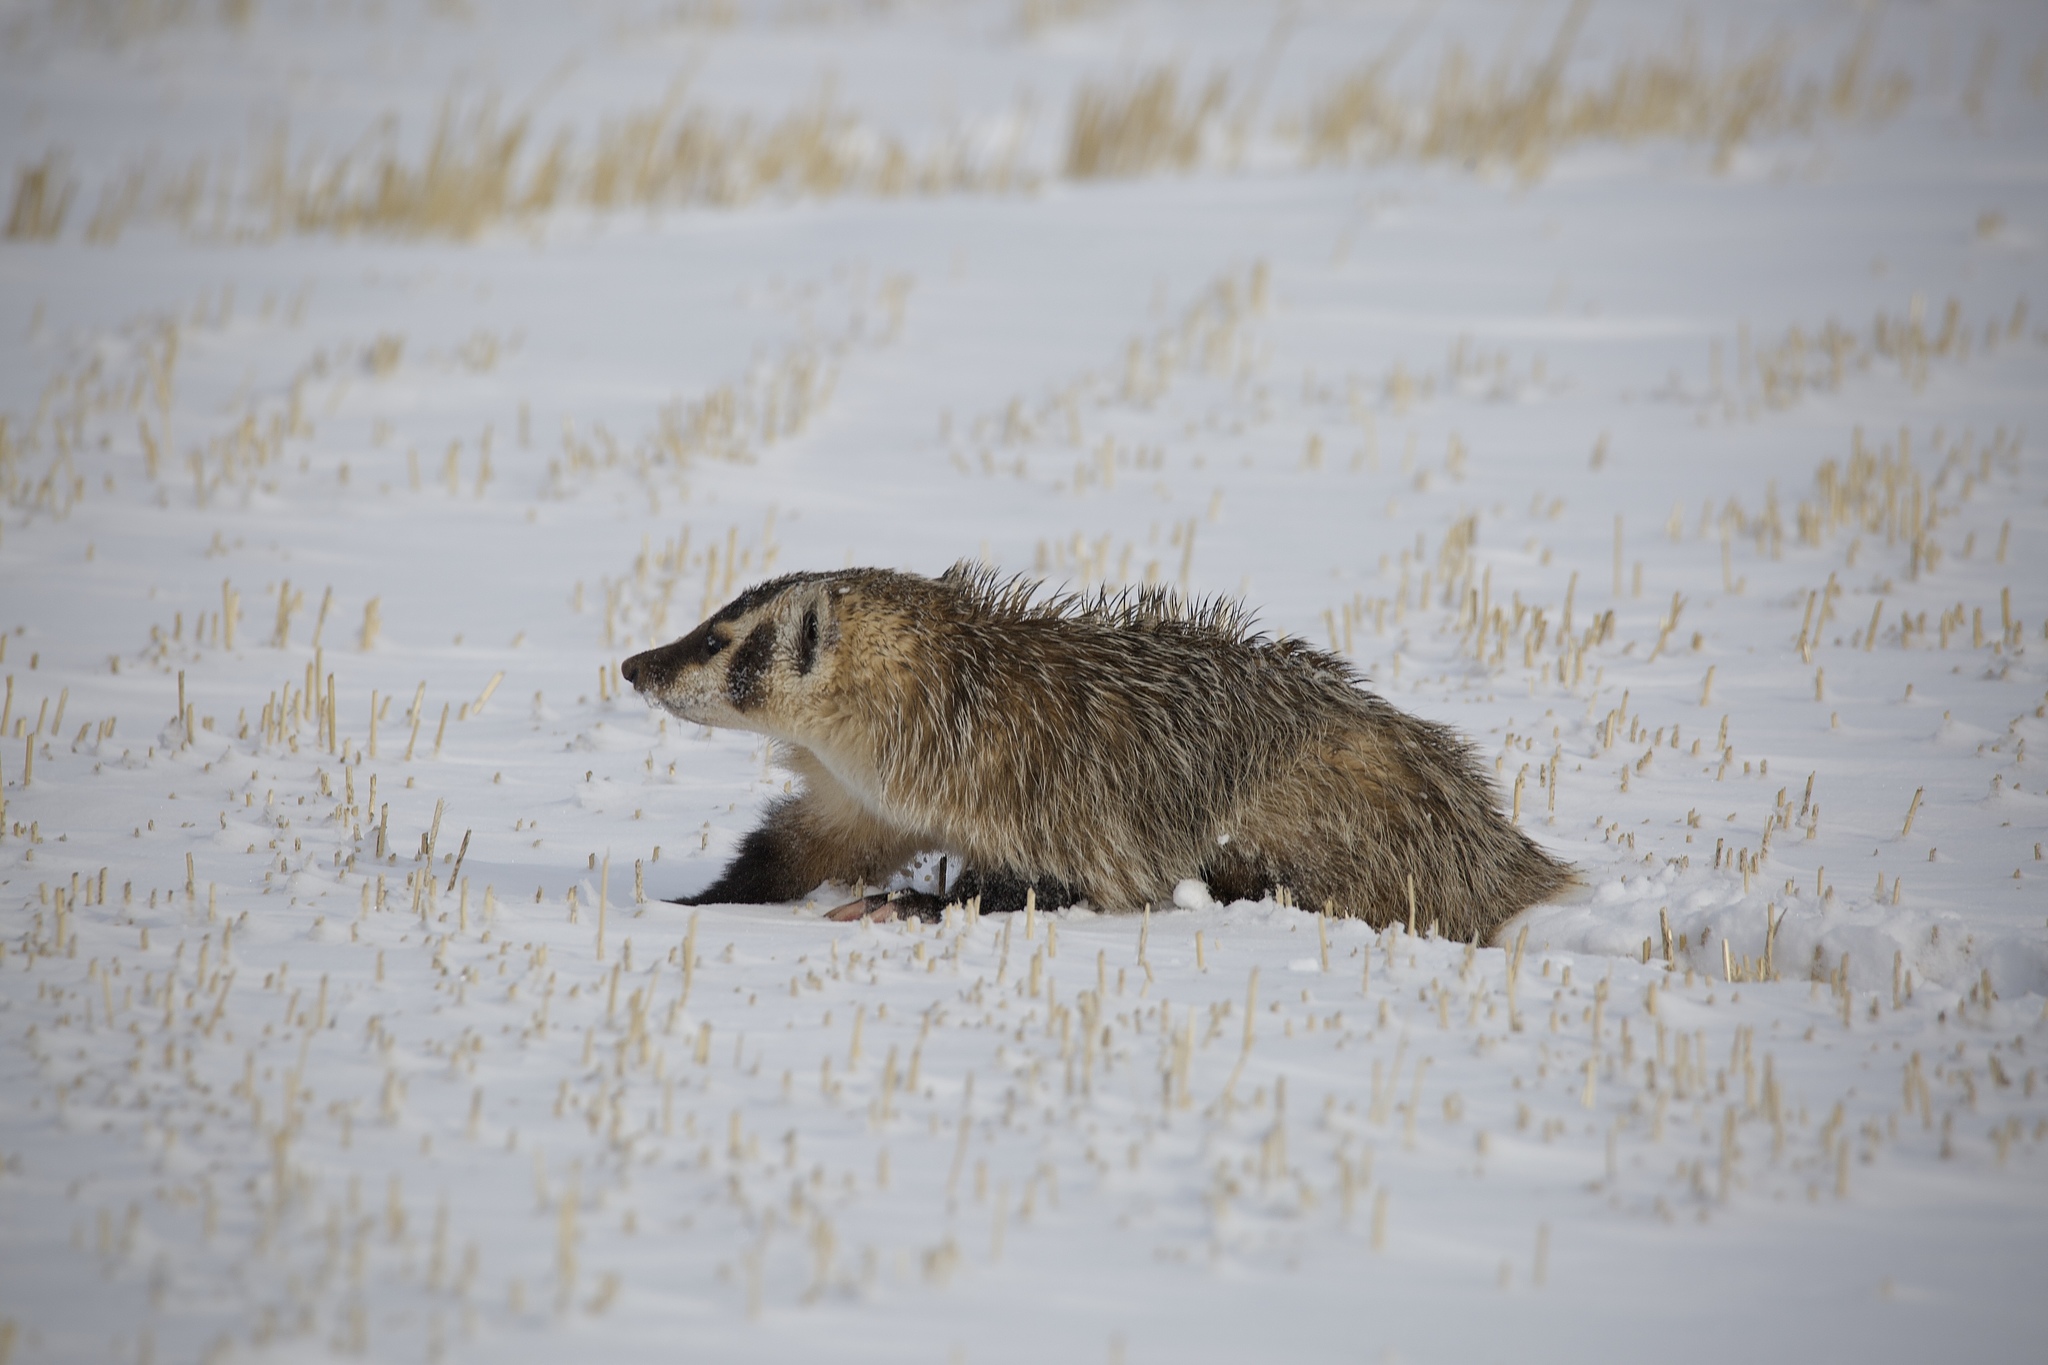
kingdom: Animalia
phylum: Chordata
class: Mammalia
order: Carnivora
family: Mustelidae
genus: Taxidea
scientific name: Taxidea taxus
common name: American badger
